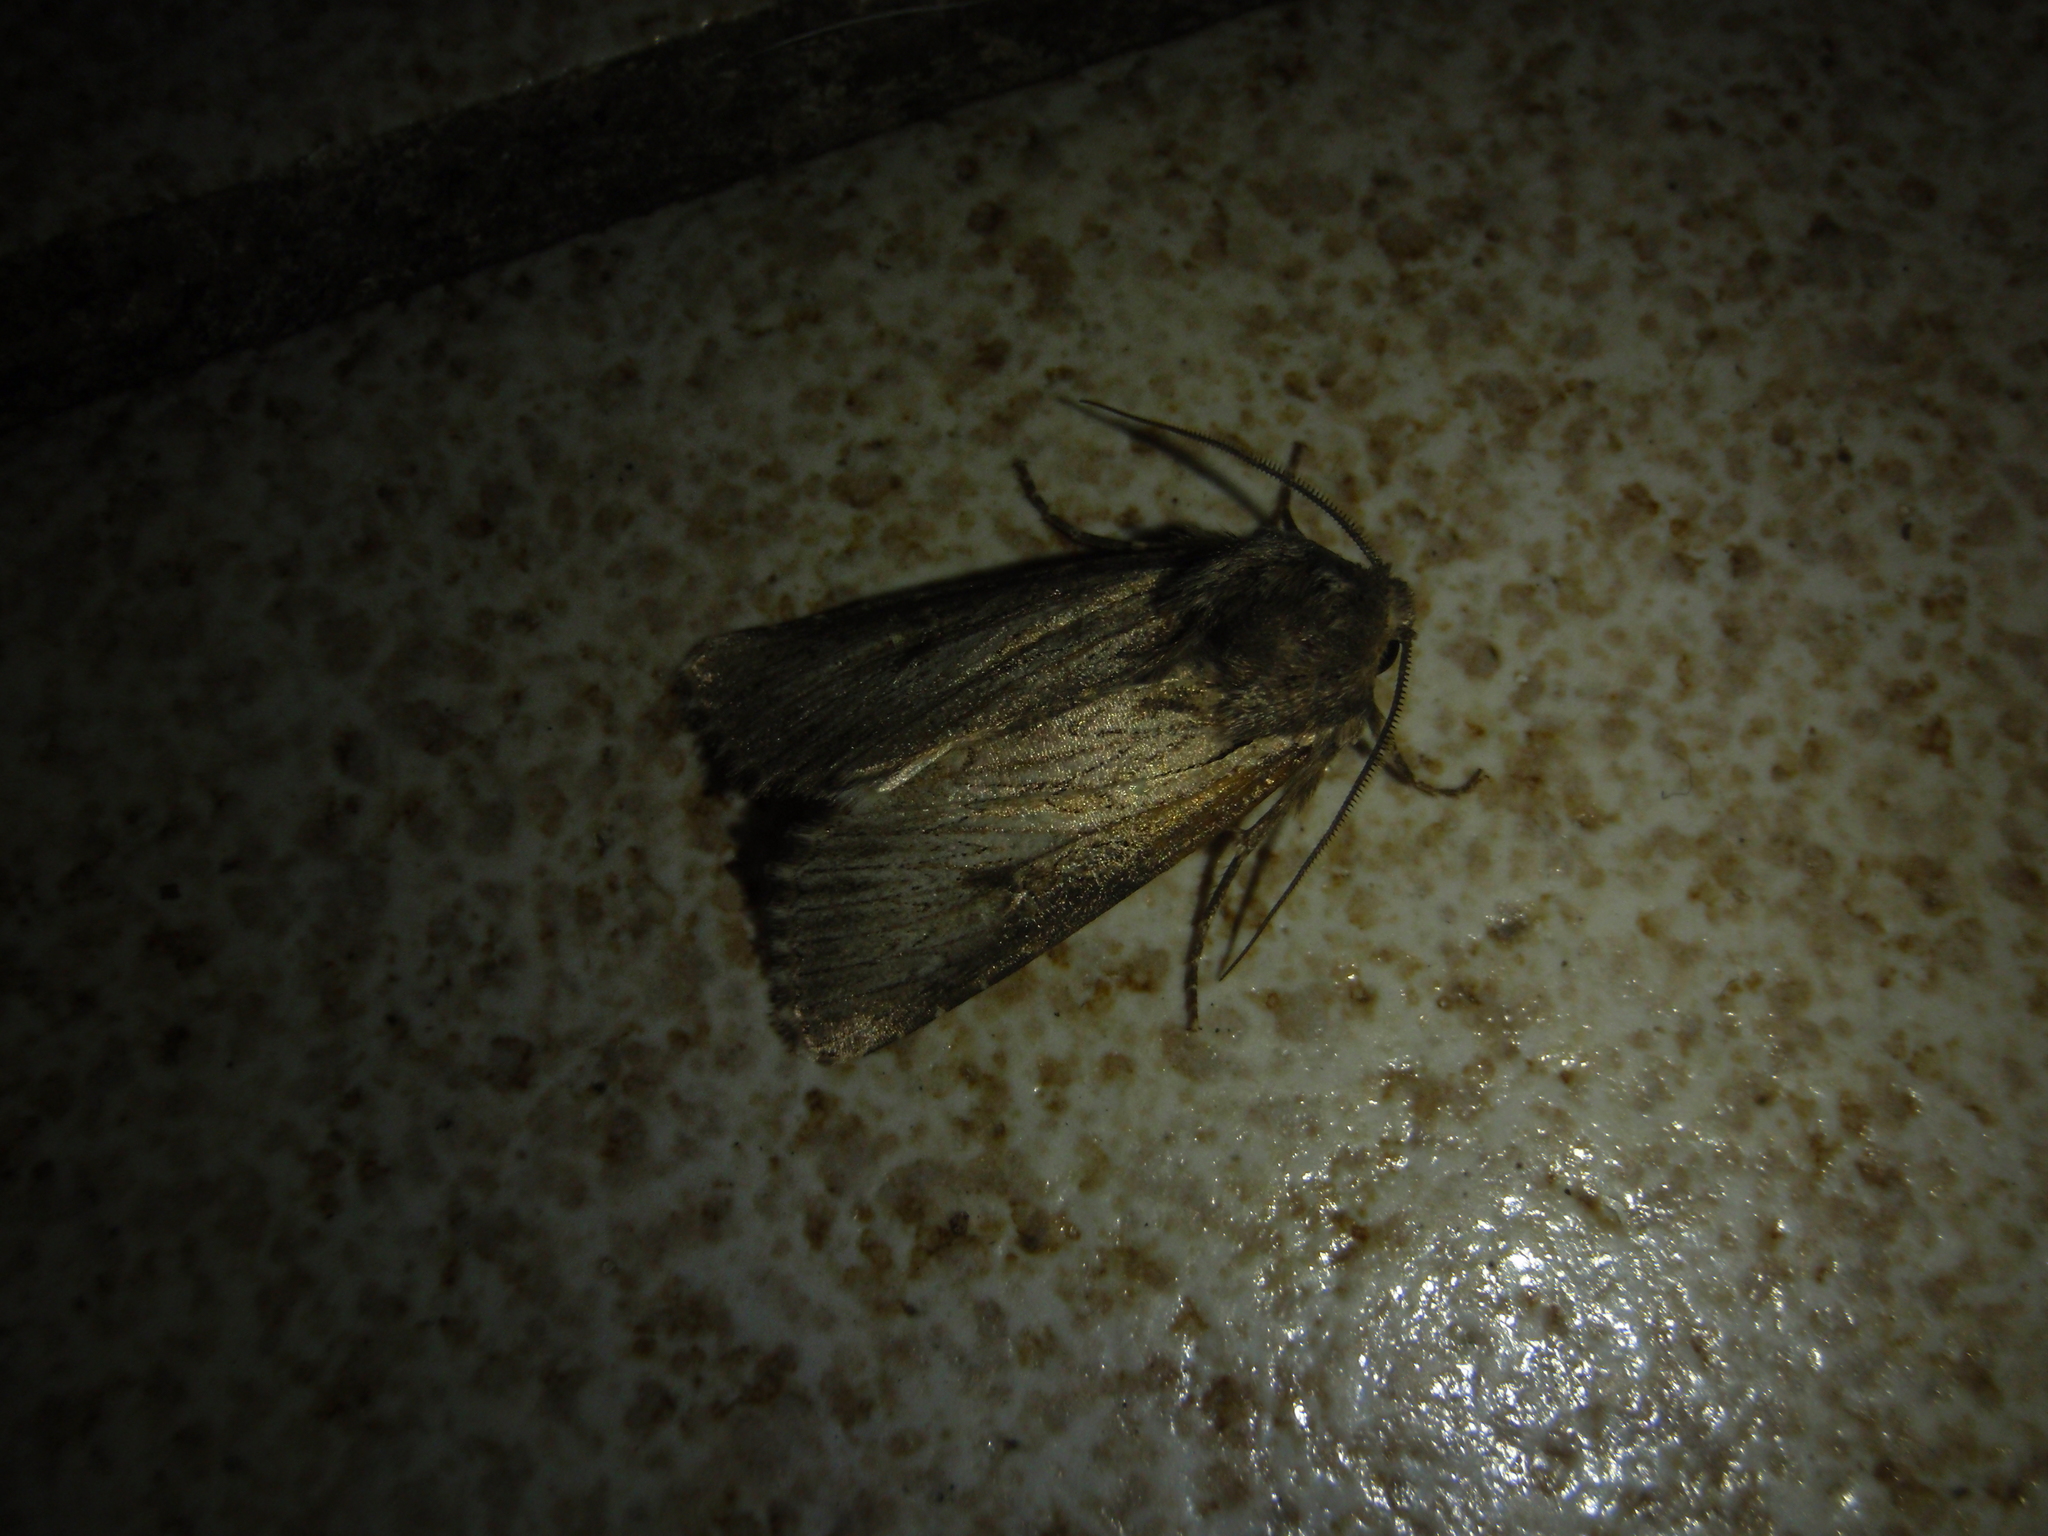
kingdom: Animalia
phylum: Arthropoda
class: Insecta
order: Lepidoptera
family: Noctuidae
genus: Aporophyla
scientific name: Aporophyla australis
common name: Feathered brindle
